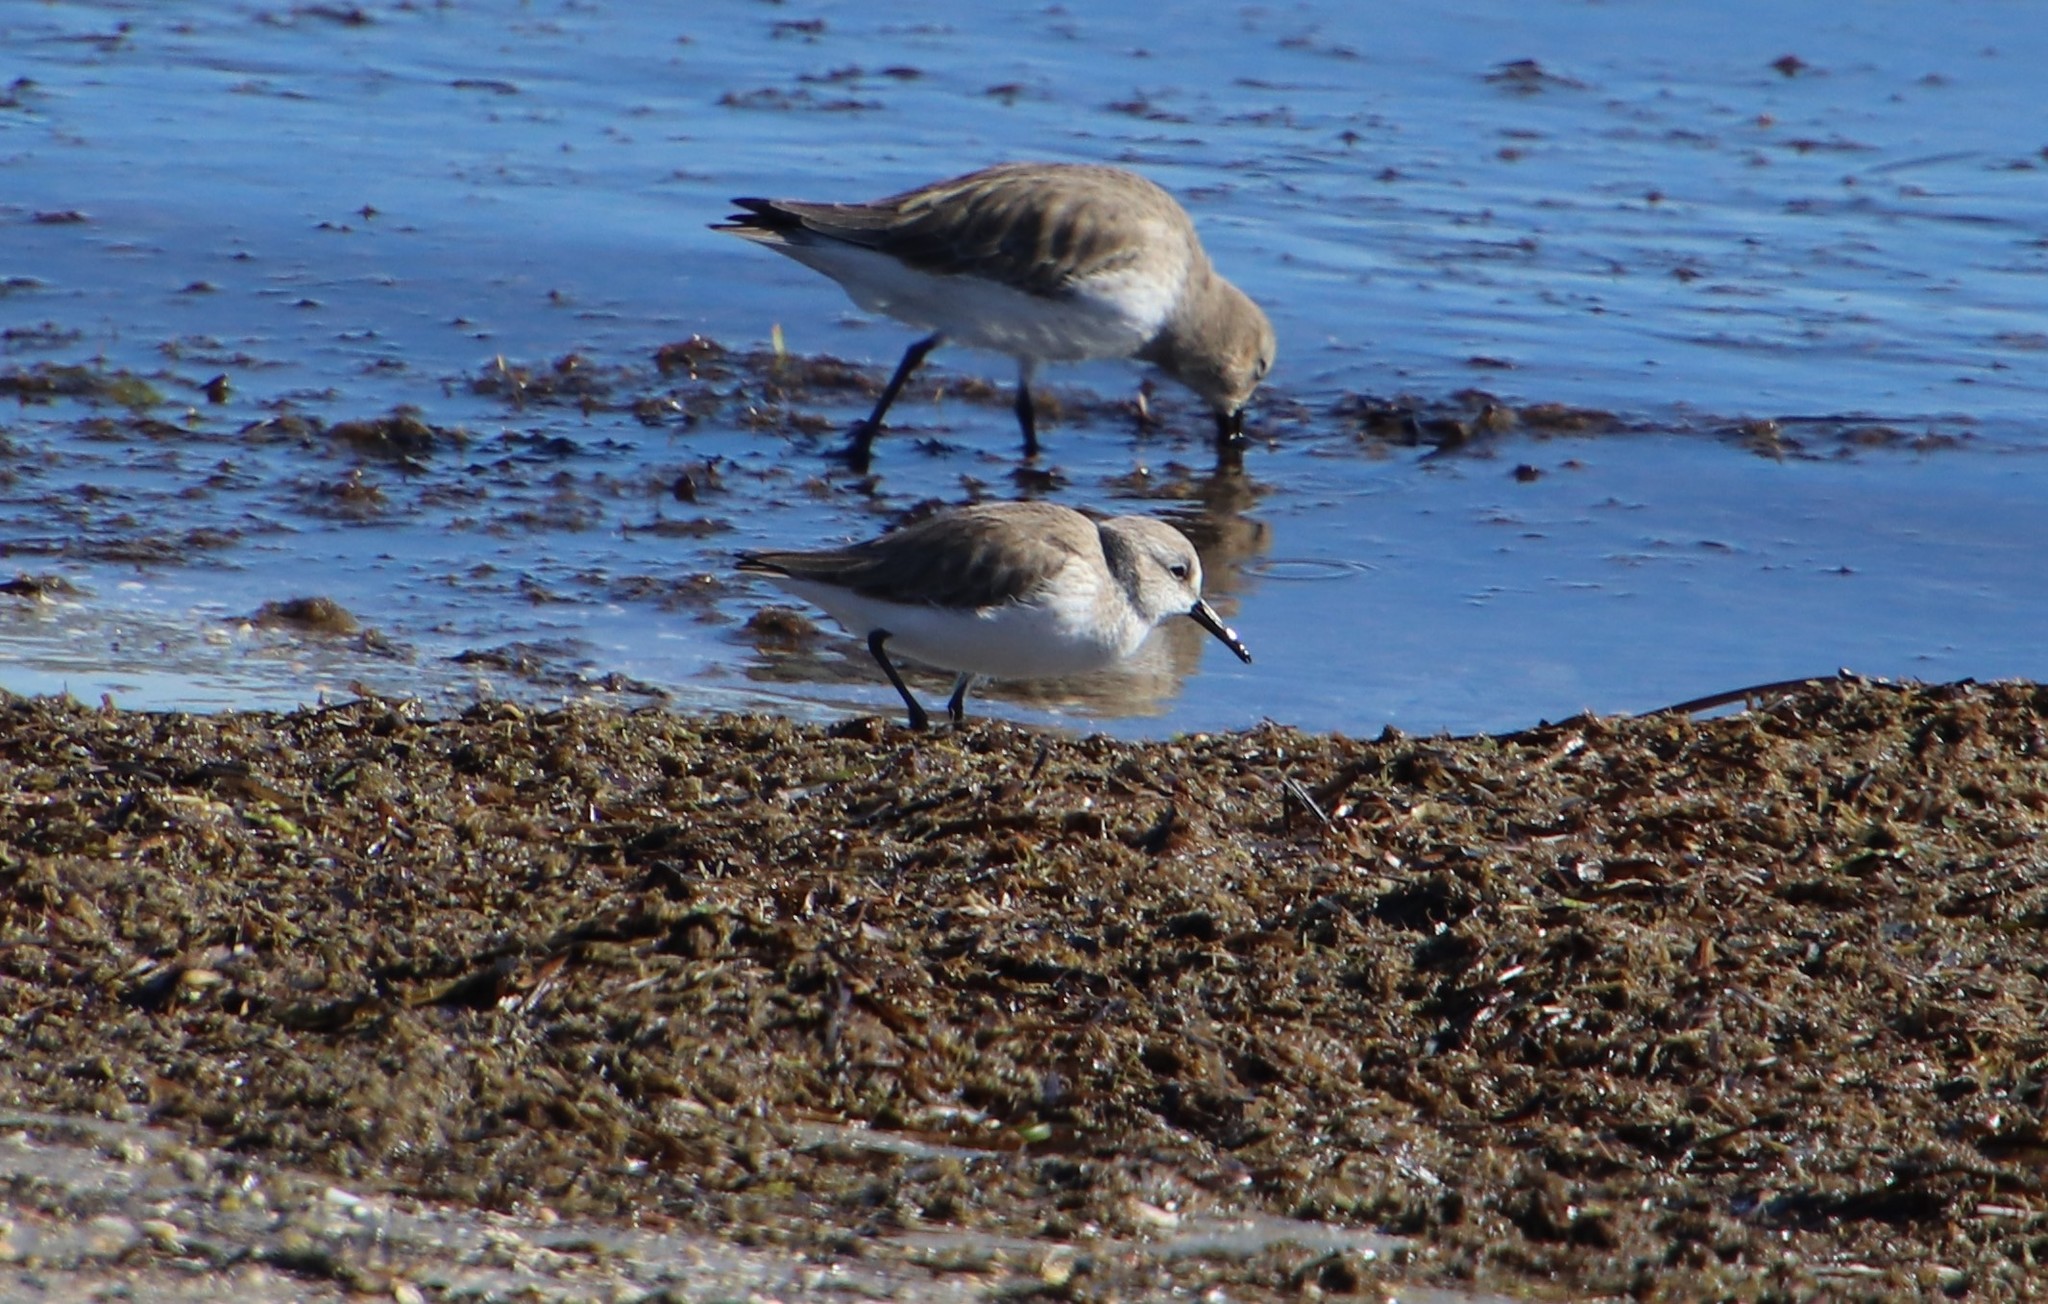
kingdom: Animalia
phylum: Chordata
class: Aves
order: Charadriiformes
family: Scolopacidae
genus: Calidris
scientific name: Calidris mauri
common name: Western sandpiper
